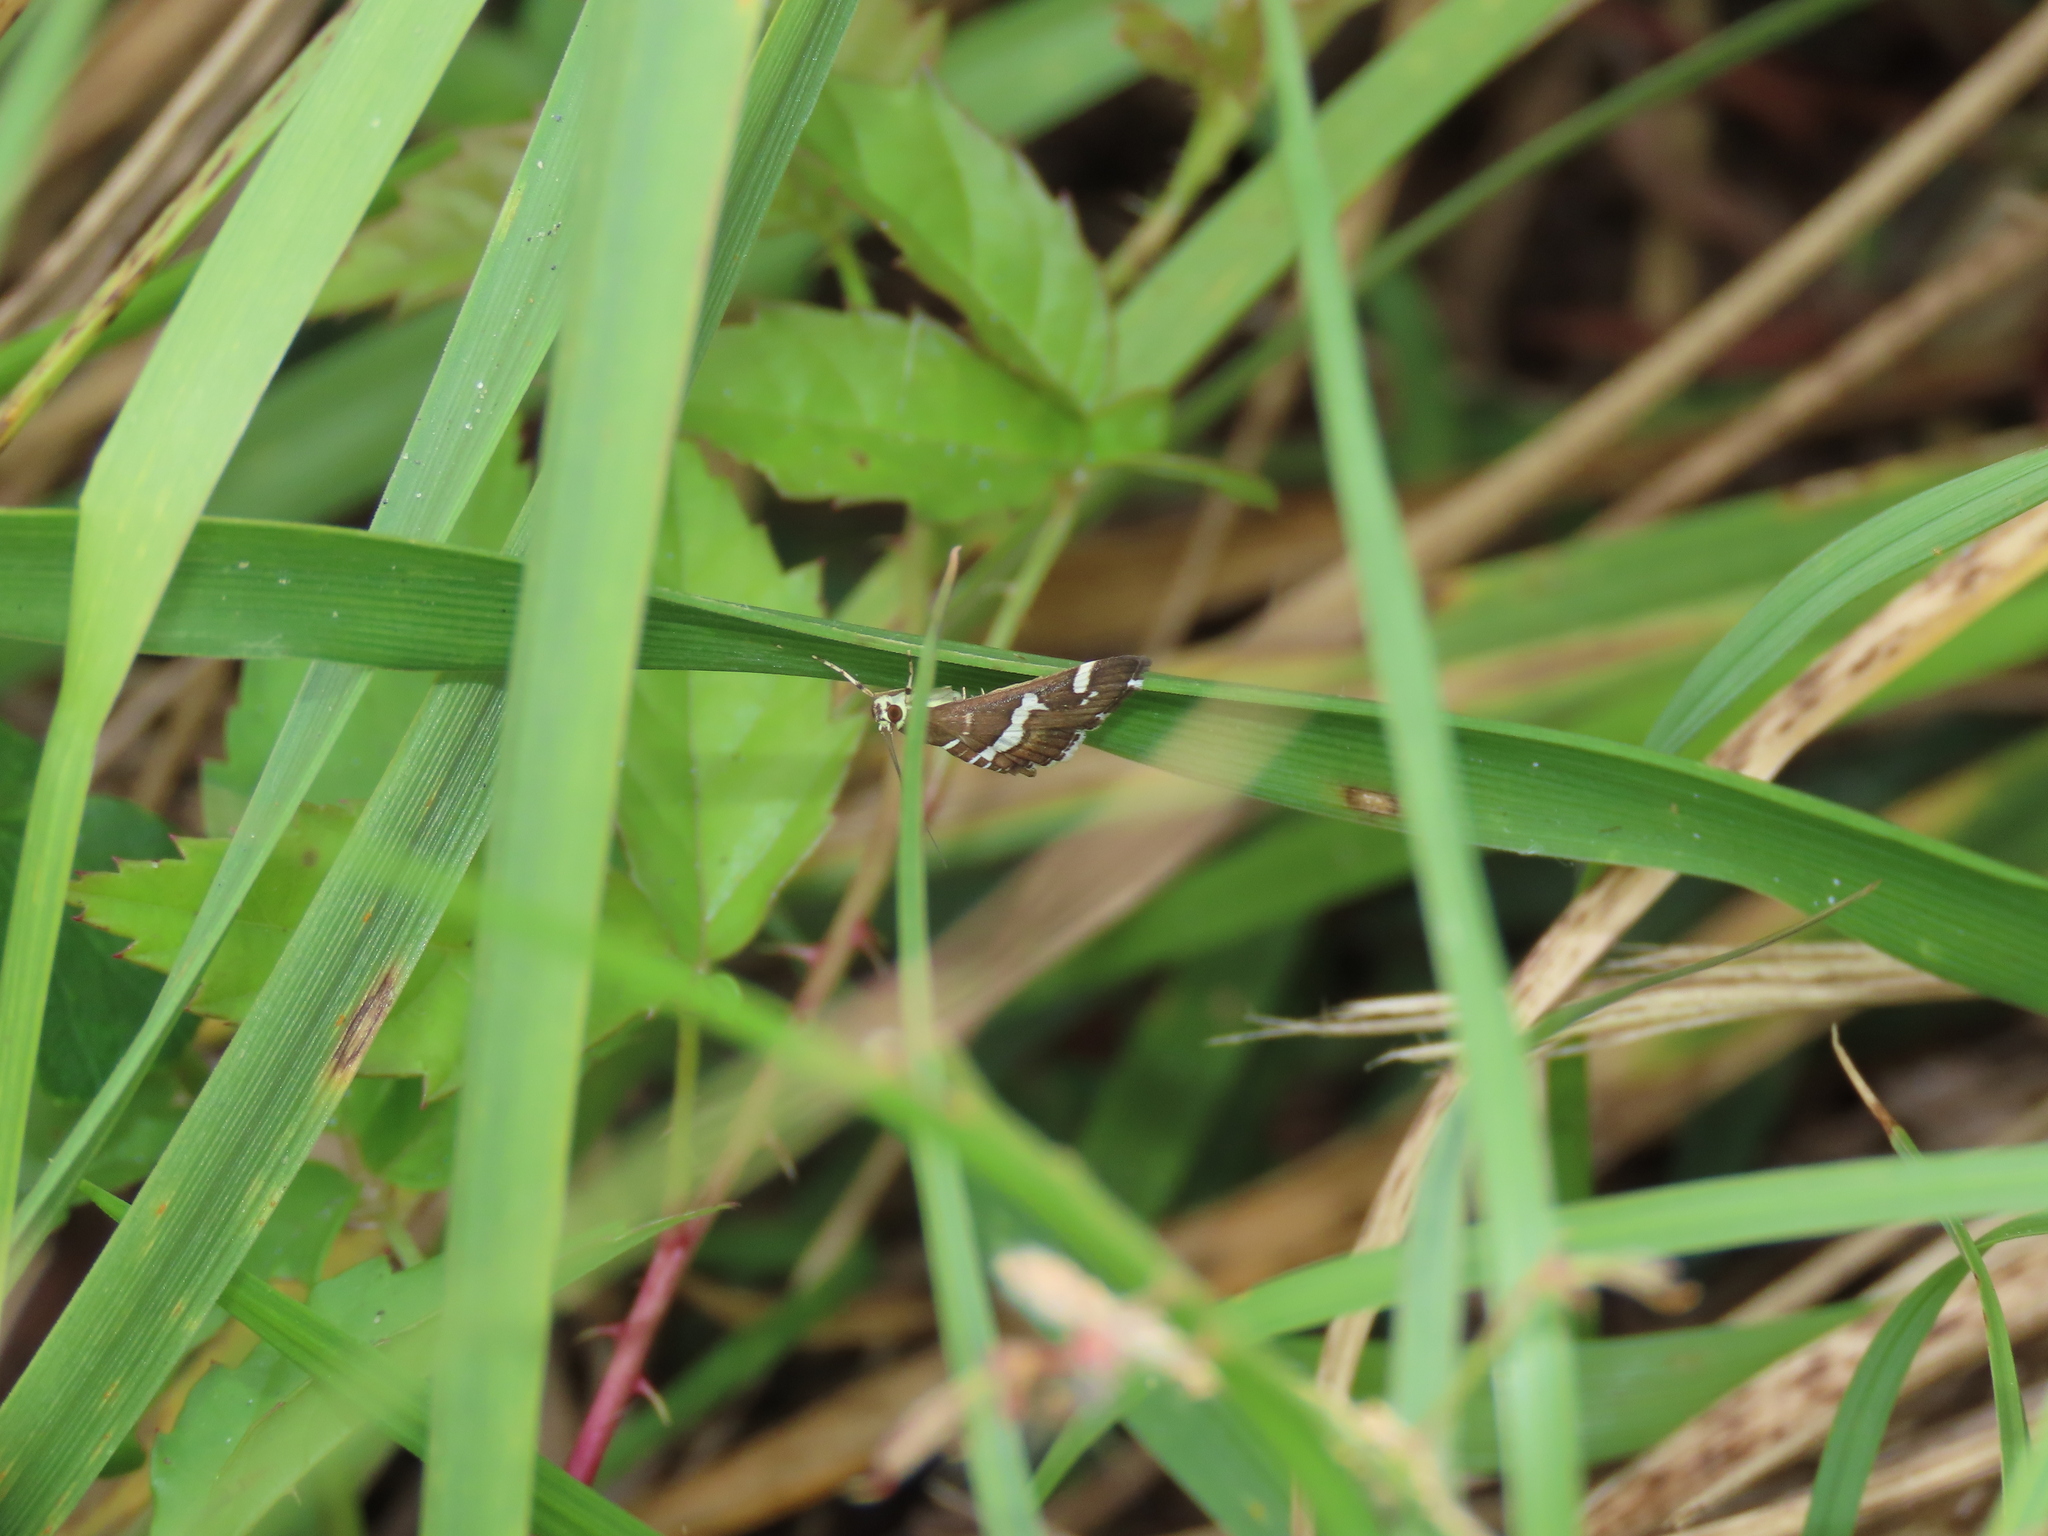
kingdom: Animalia
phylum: Arthropoda
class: Insecta
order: Lepidoptera
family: Crambidae
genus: Spoladea
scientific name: Spoladea recurvalis
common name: Beet webworm moth
